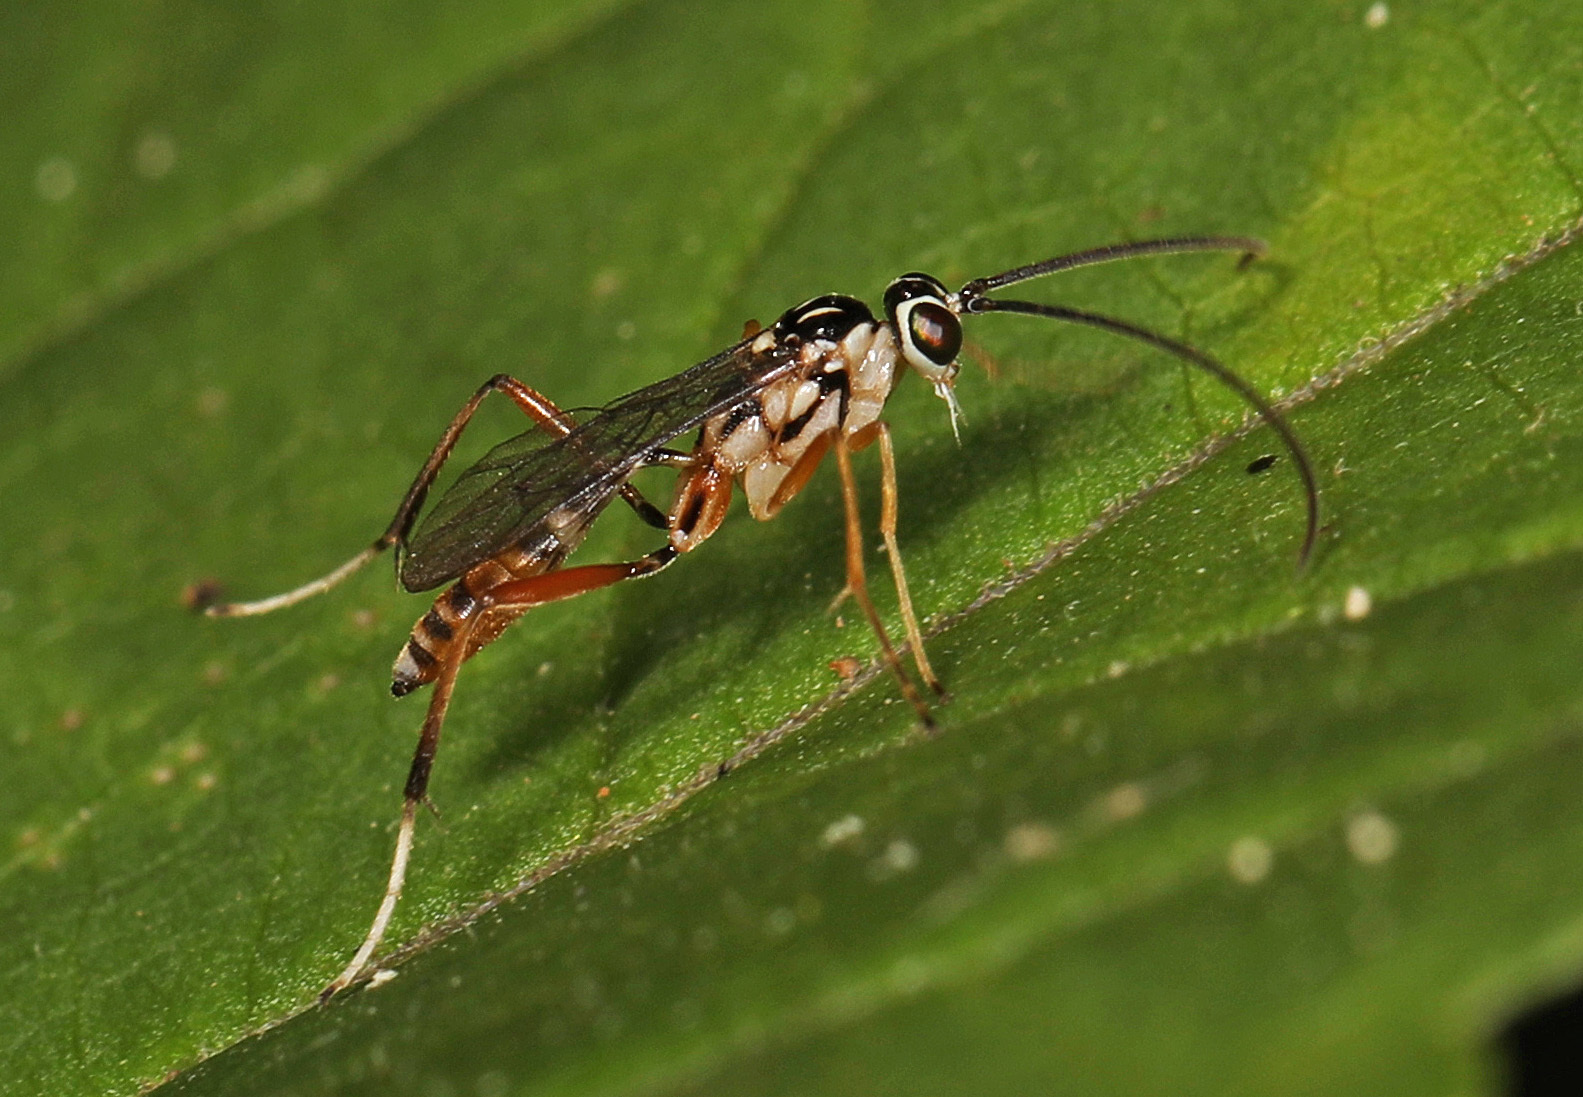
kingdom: Animalia
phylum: Arthropoda
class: Insecta
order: Hymenoptera
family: Ichneumonidae
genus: Lymeon
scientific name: Lymeon orbus
